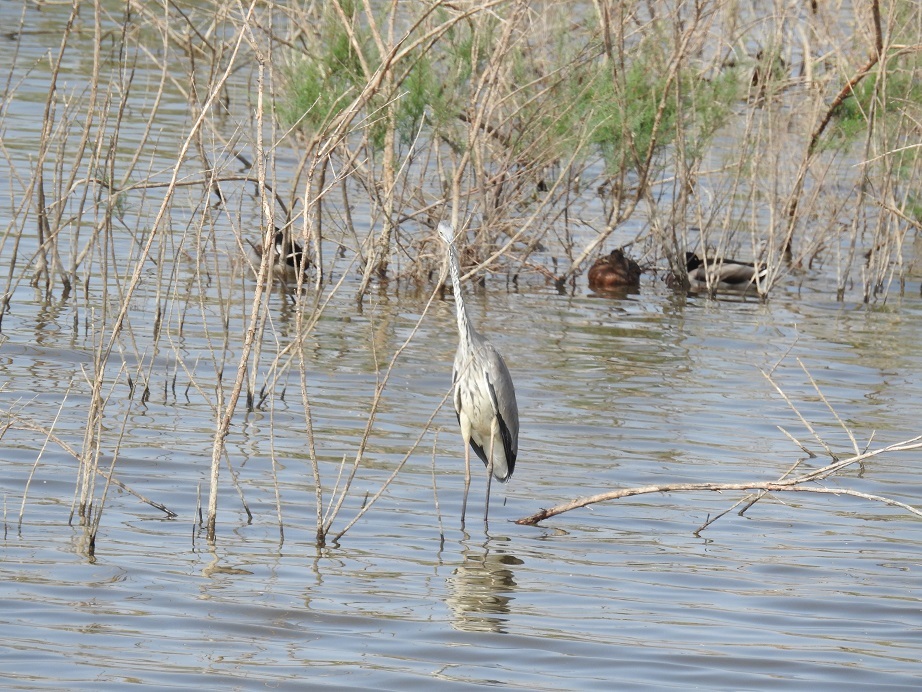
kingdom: Animalia
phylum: Chordata
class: Aves
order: Pelecaniformes
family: Ardeidae
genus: Ardea
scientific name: Ardea cinerea
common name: Grey heron
